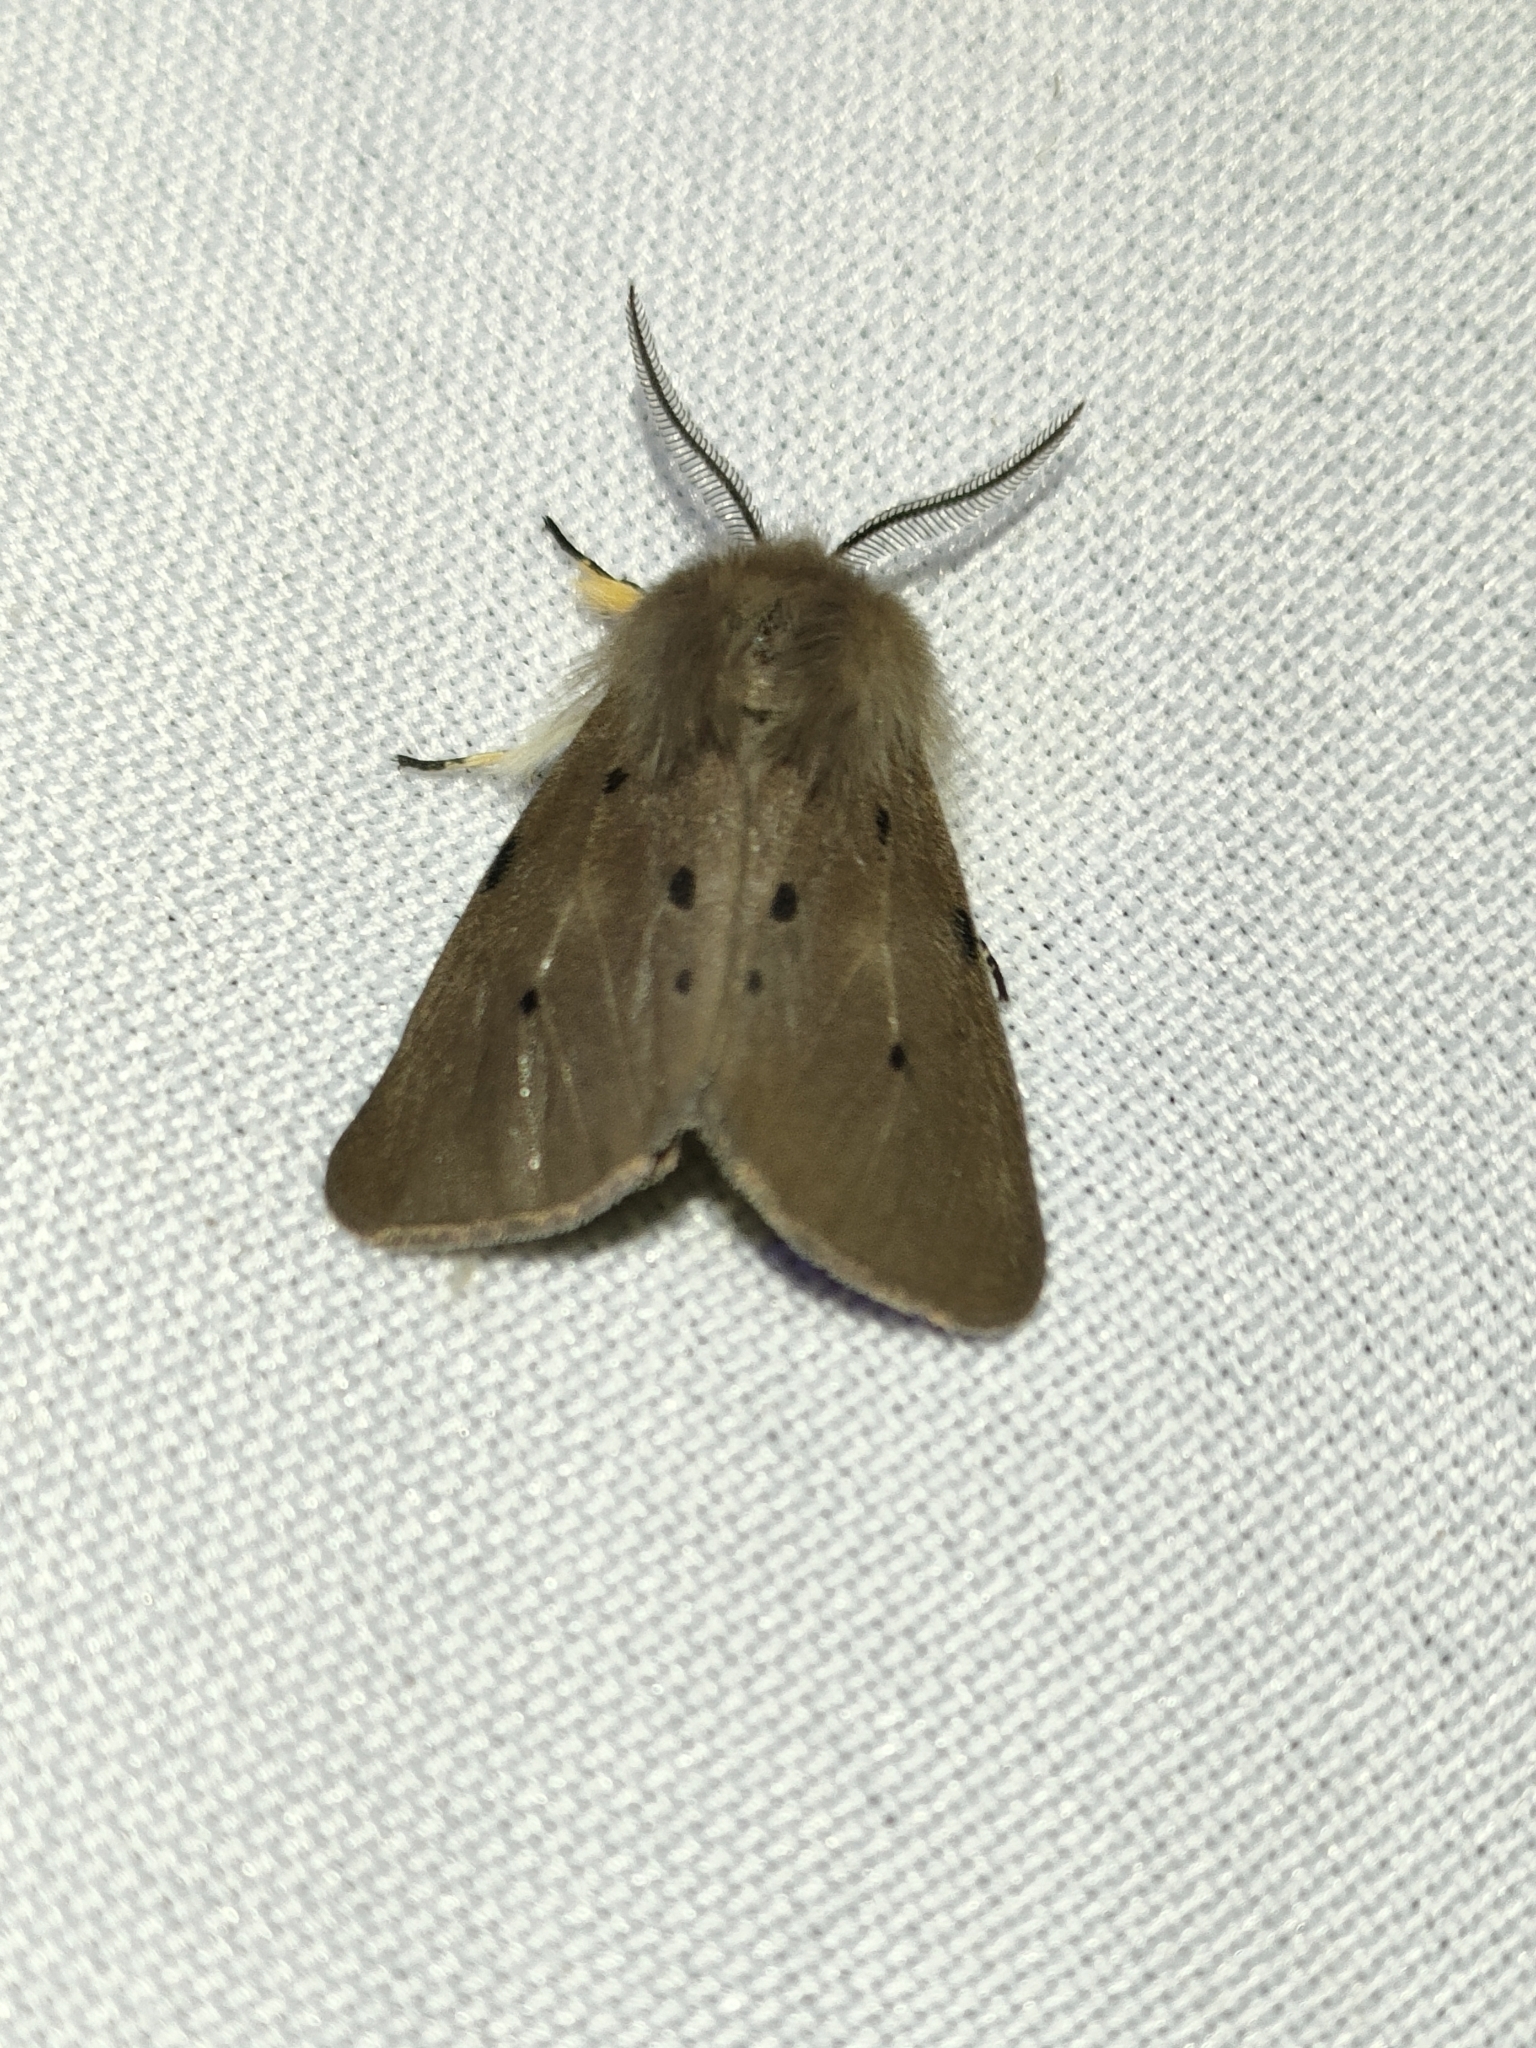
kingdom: Animalia
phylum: Arthropoda
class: Insecta
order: Lepidoptera
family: Erebidae
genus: Diaphora
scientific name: Diaphora mendica
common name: Muslin moth
